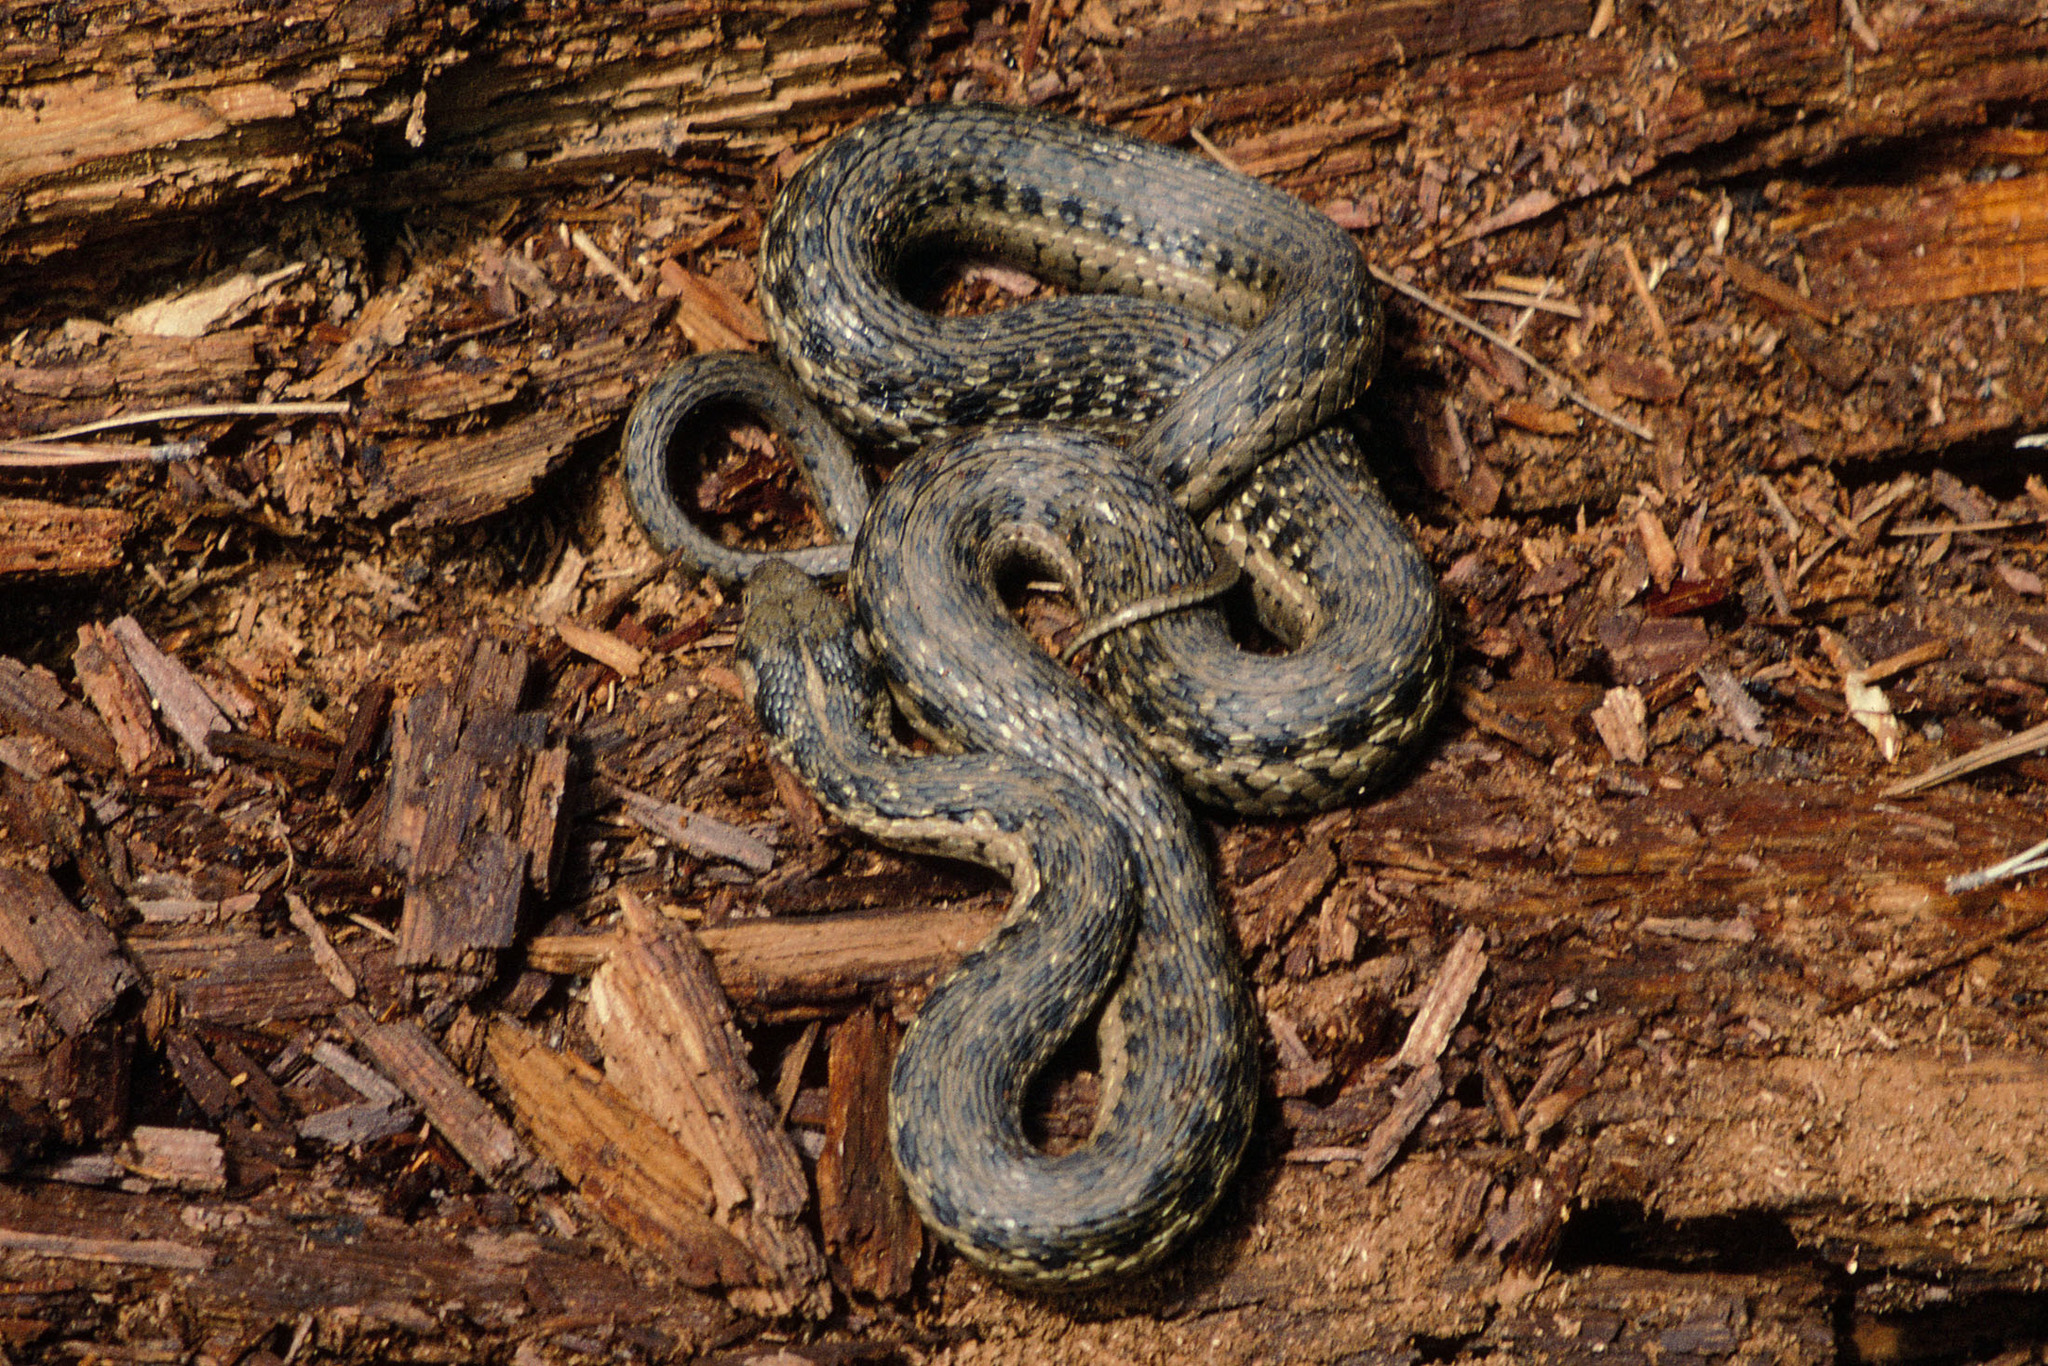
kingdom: Animalia
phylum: Chordata
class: Squamata
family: Colubridae
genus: Thamnophis
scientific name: Thamnophis couchii
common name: Western aquatic garter snake
